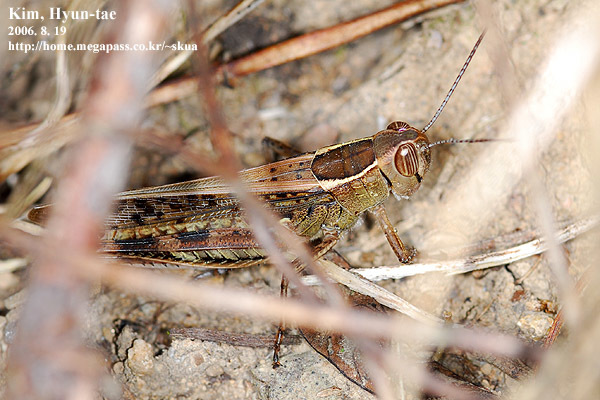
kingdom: Animalia
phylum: Arthropoda
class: Insecta
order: Orthoptera
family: Acrididae
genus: Shirakiacris
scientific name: Shirakiacris shirakii
